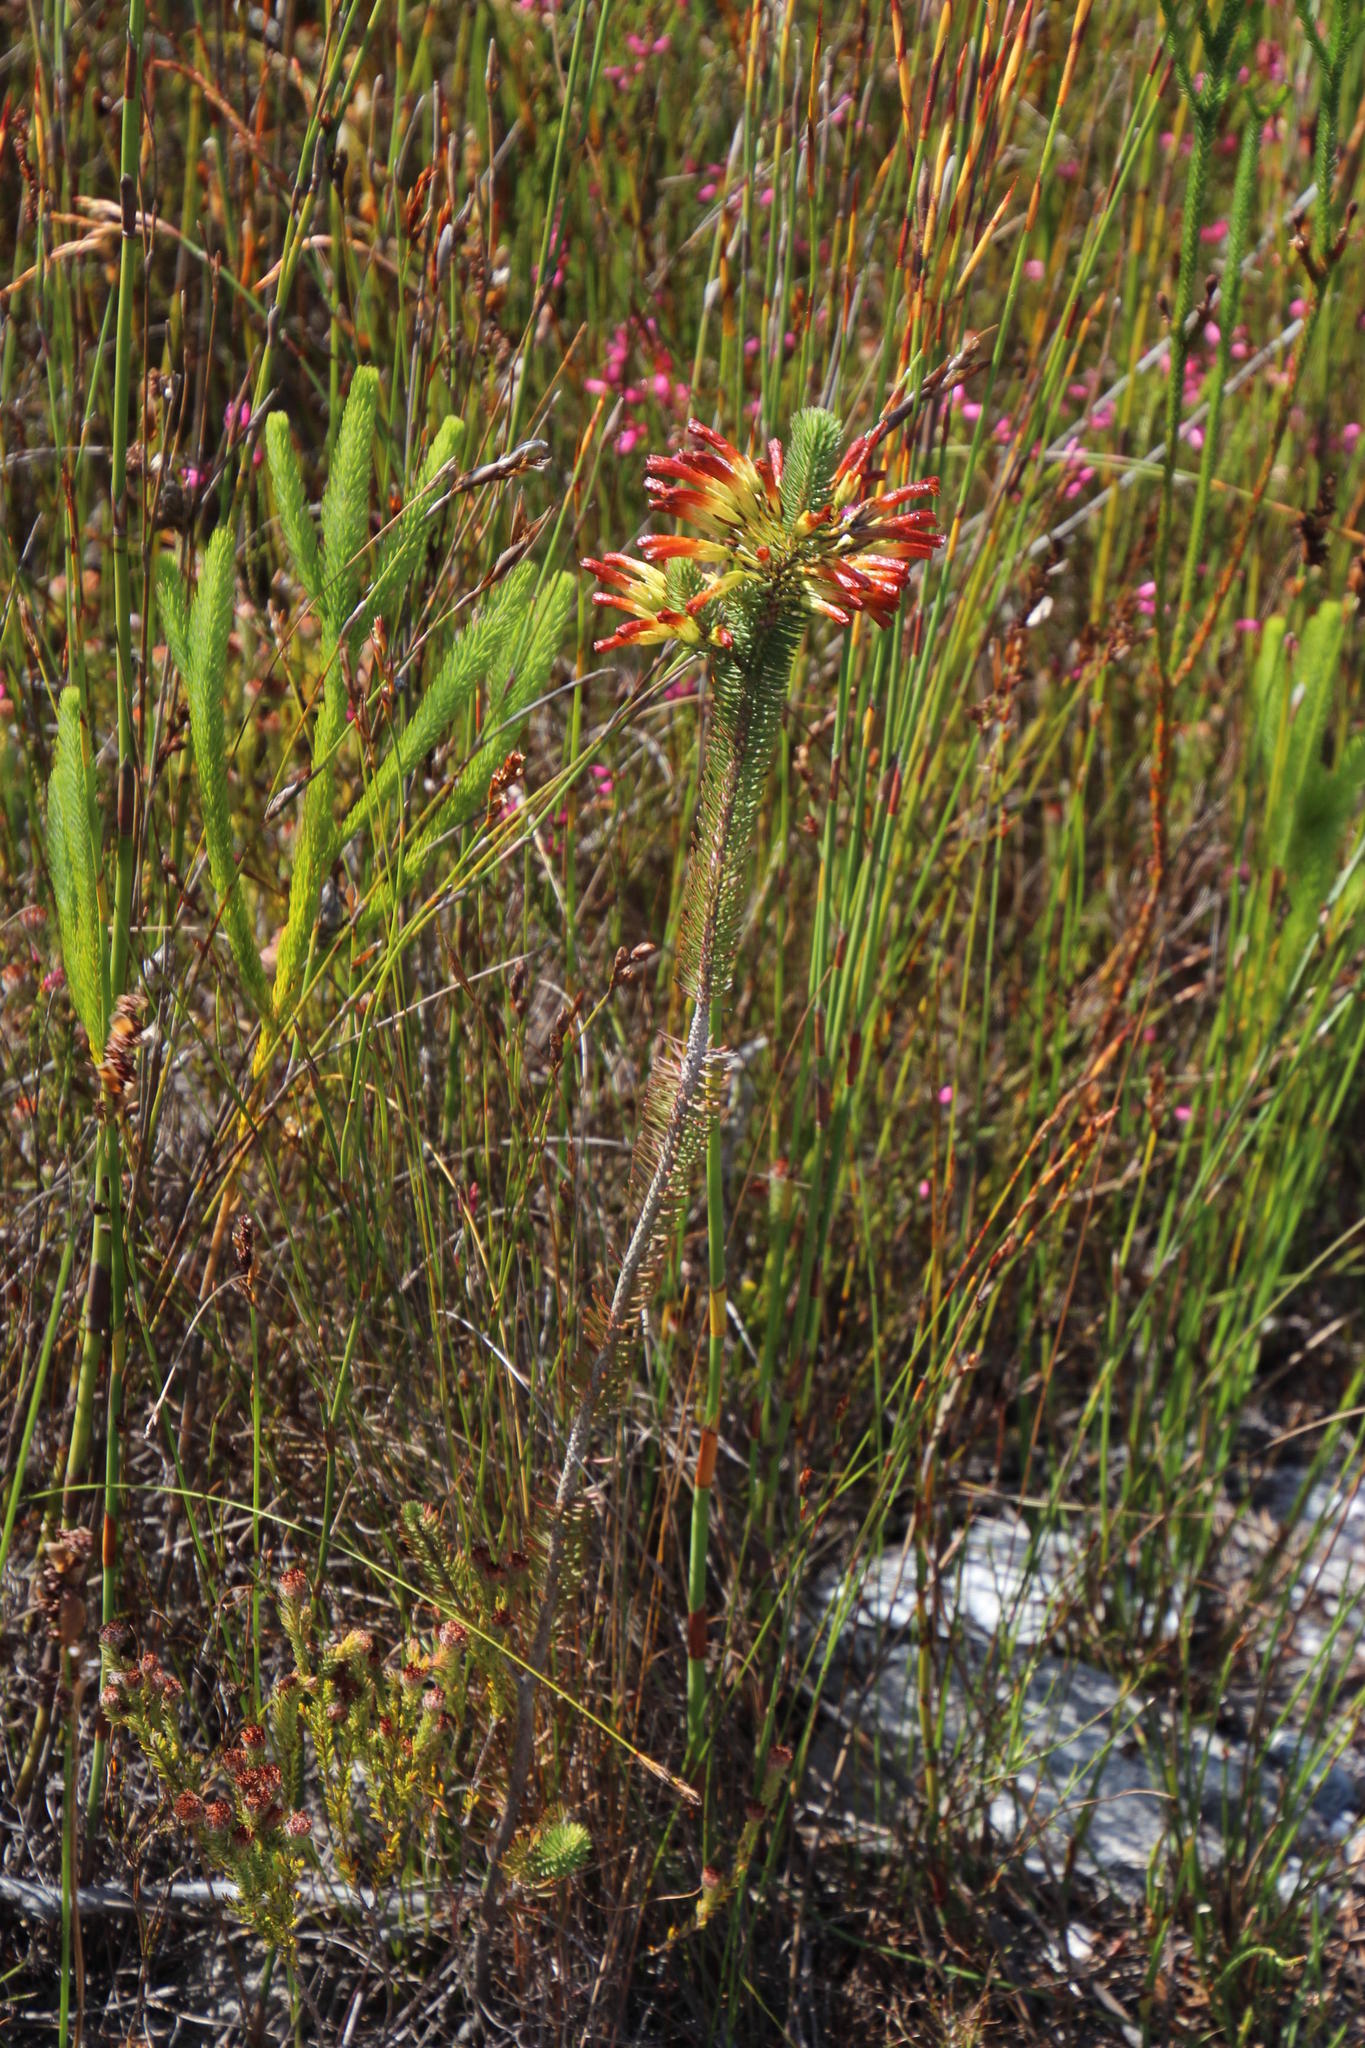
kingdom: Plantae
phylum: Tracheophyta
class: Magnoliopsida
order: Ericales
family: Ericaceae
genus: Erica
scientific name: Erica thomae
